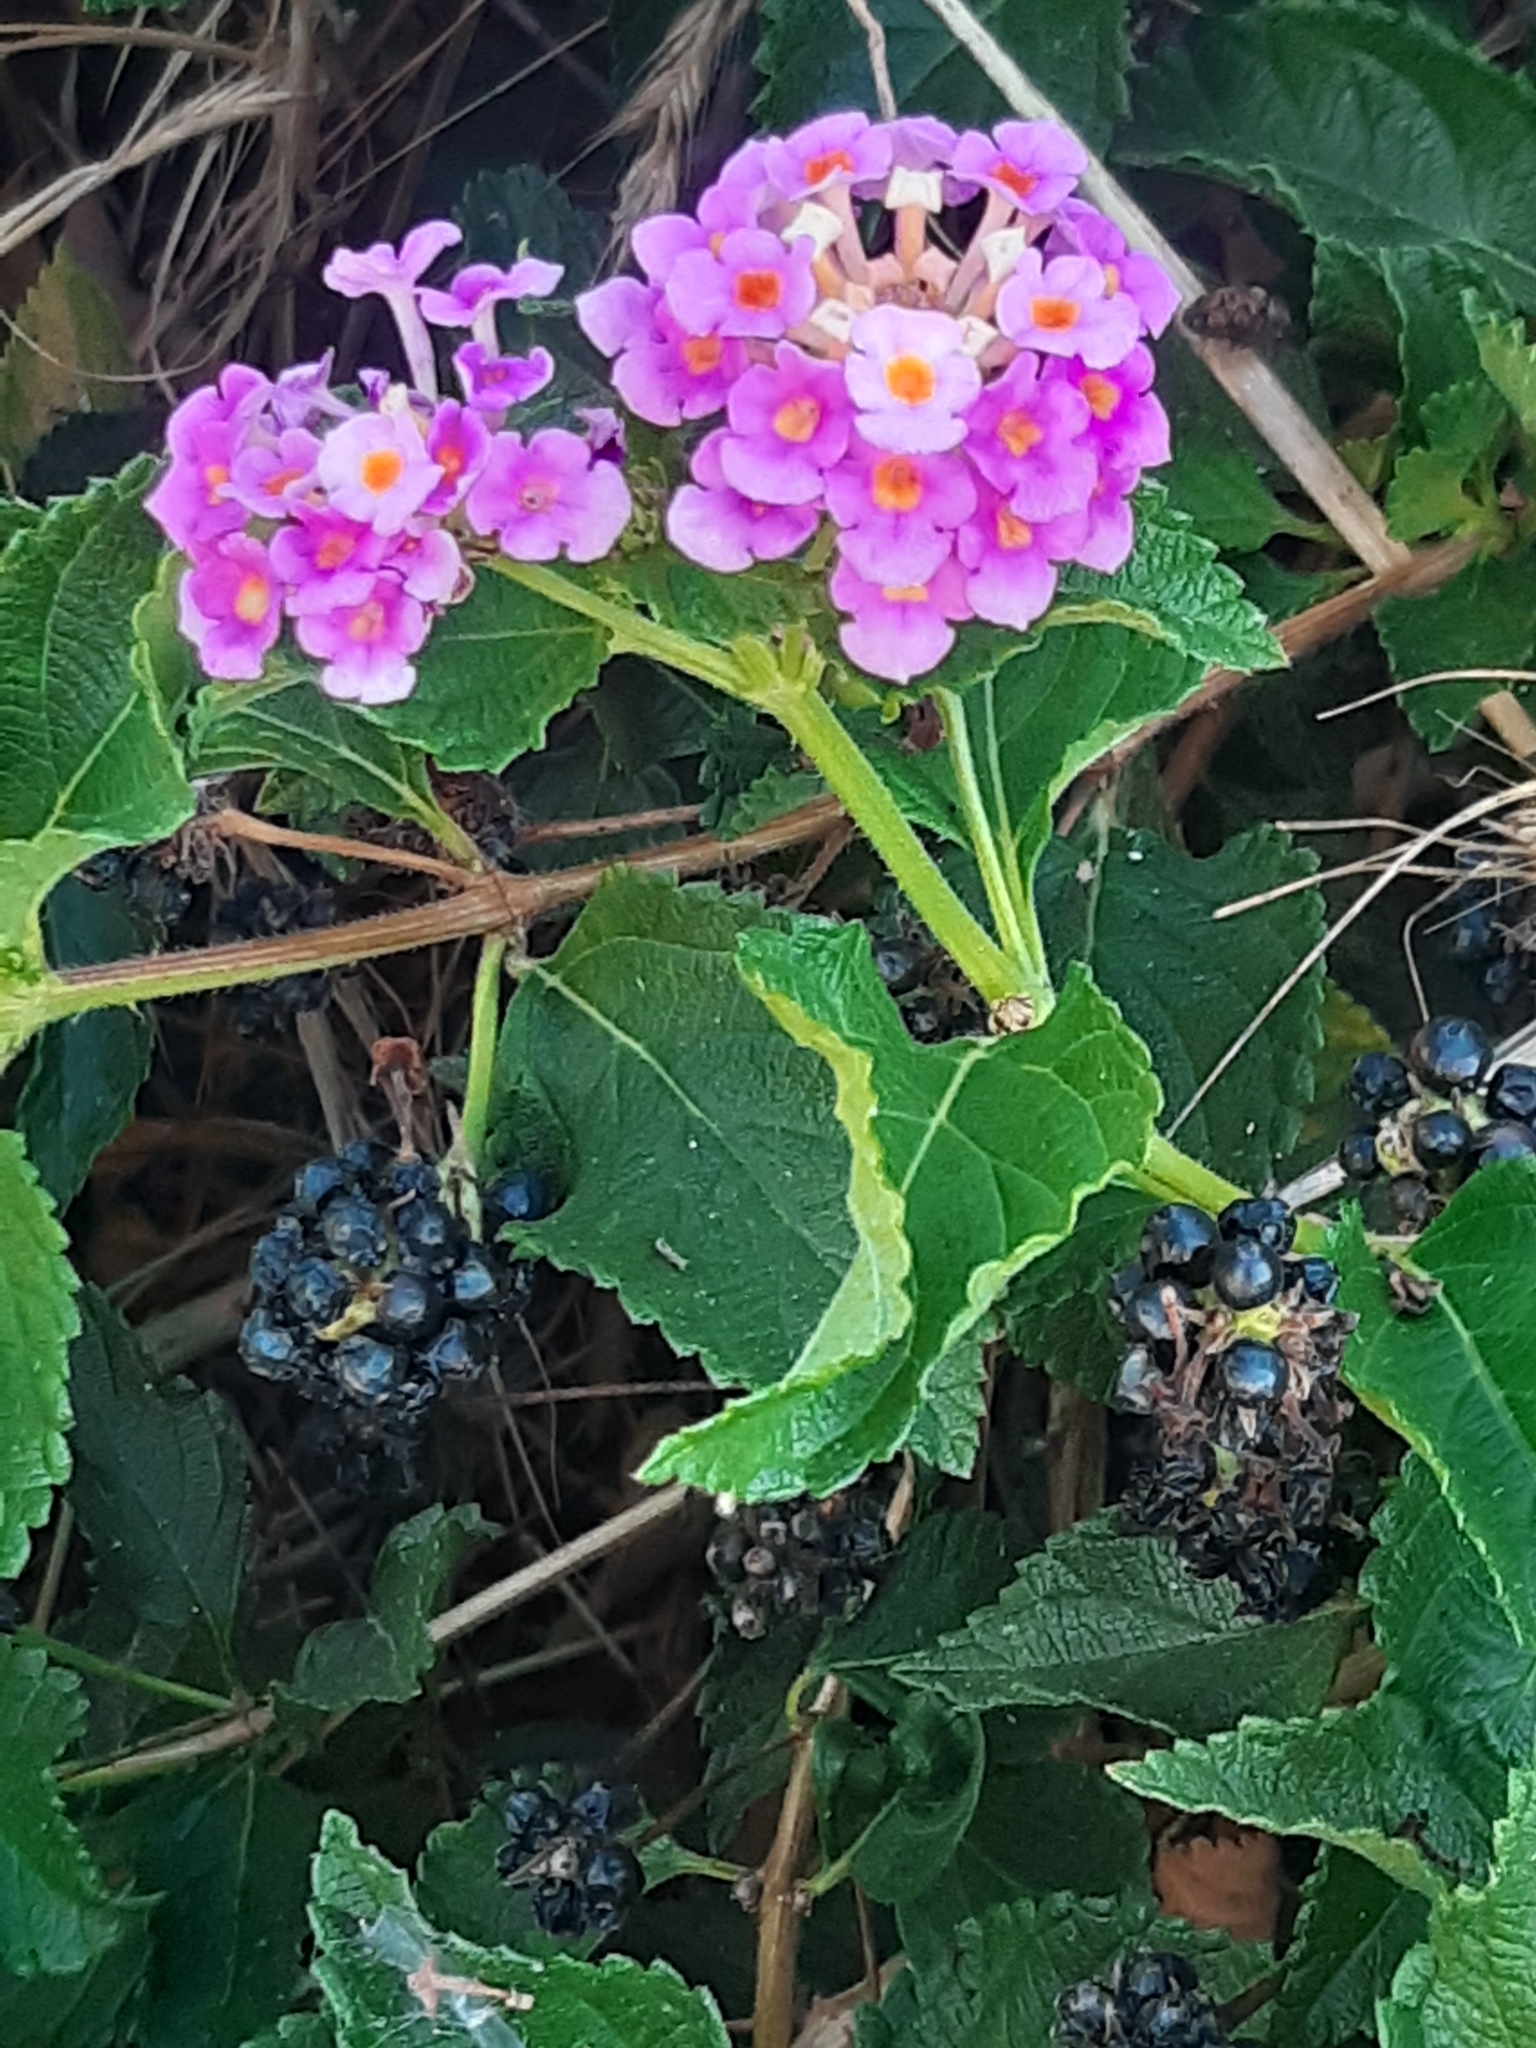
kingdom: Plantae
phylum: Tracheophyta
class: Magnoliopsida
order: Lamiales
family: Verbenaceae
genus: Lantana
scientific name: Lantana camara
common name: Lantana
